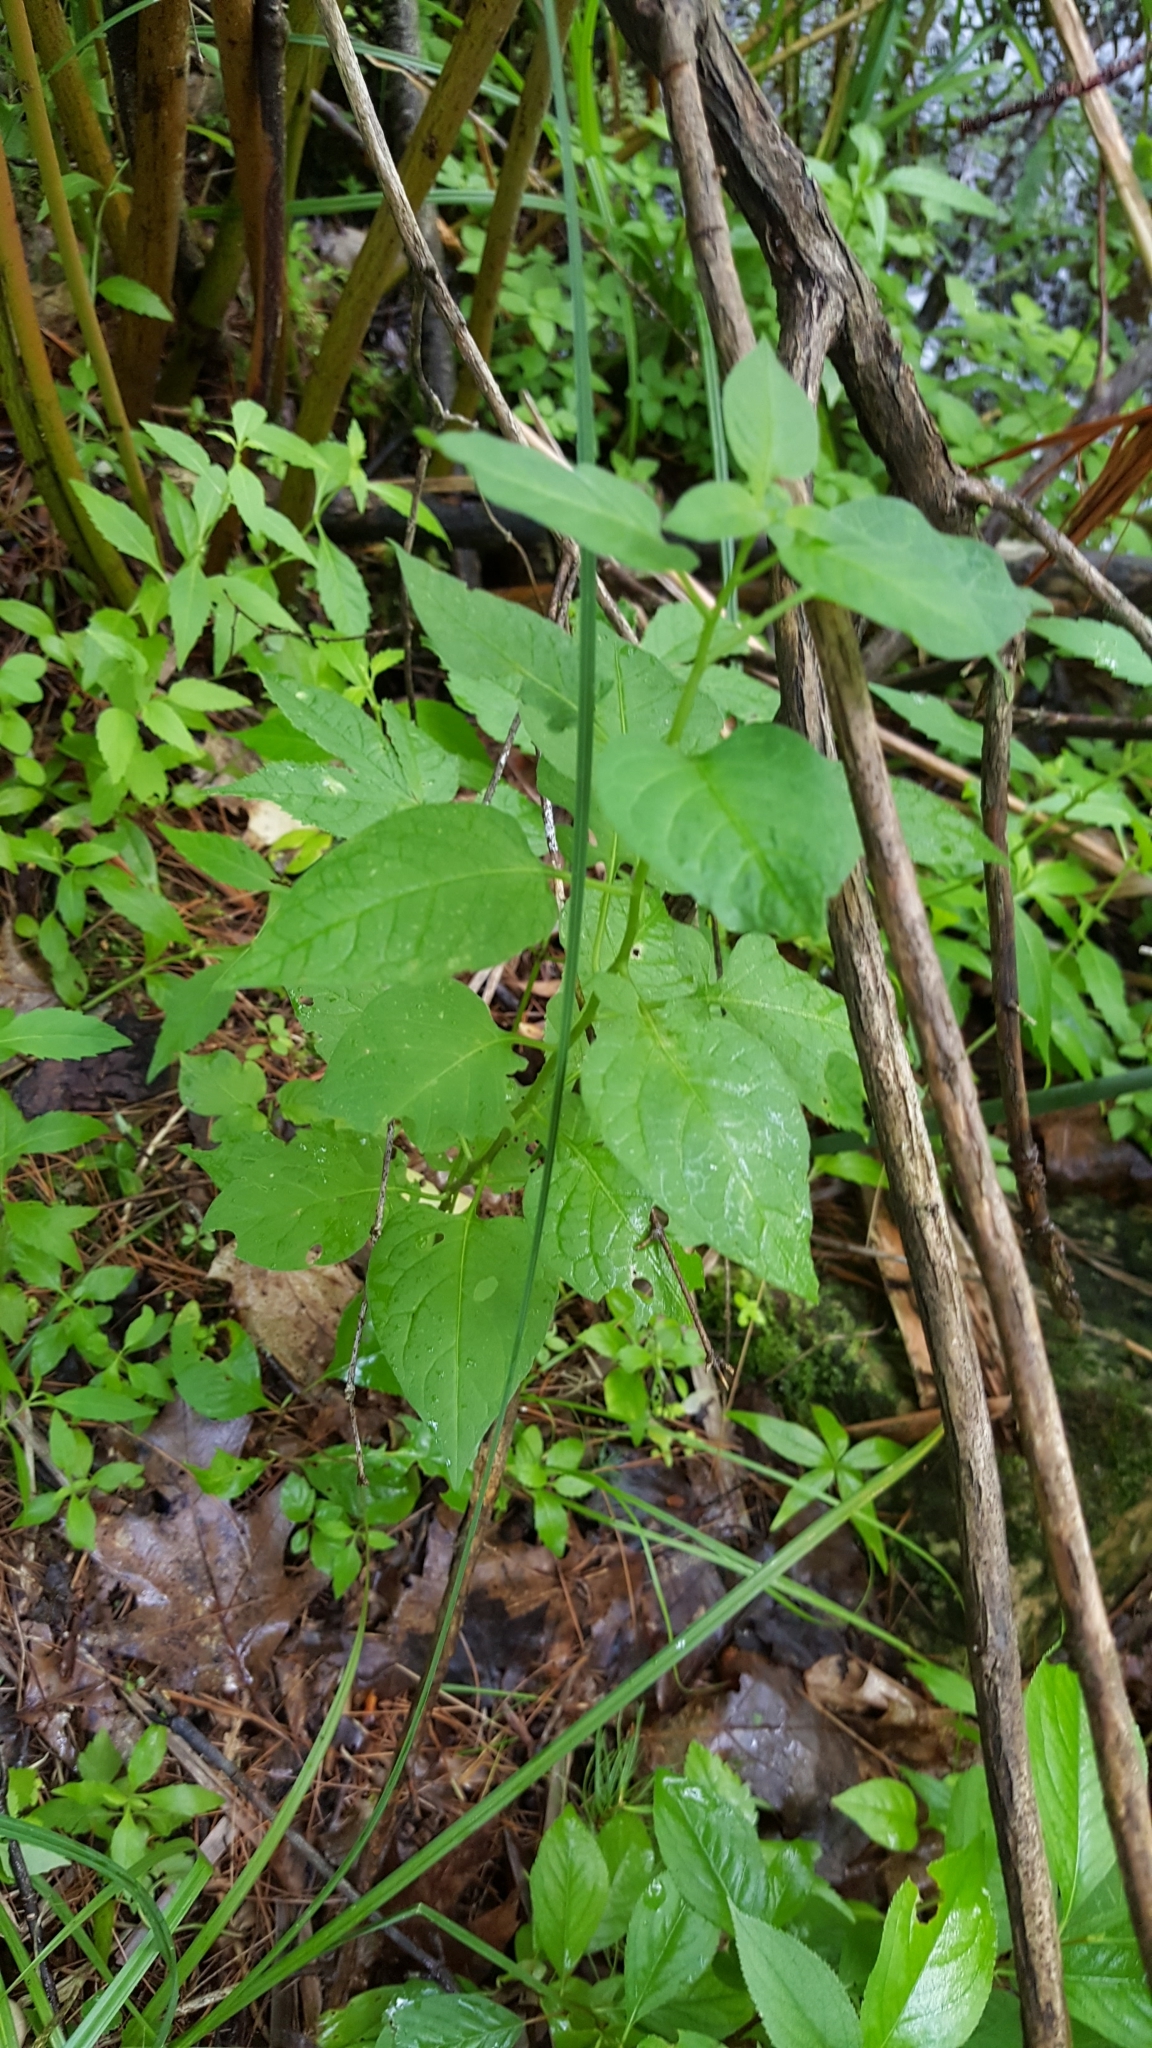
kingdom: Plantae
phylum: Tracheophyta
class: Magnoliopsida
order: Solanales
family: Solanaceae
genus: Solanum
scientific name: Solanum dulcamara
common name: Climbing nightshade
